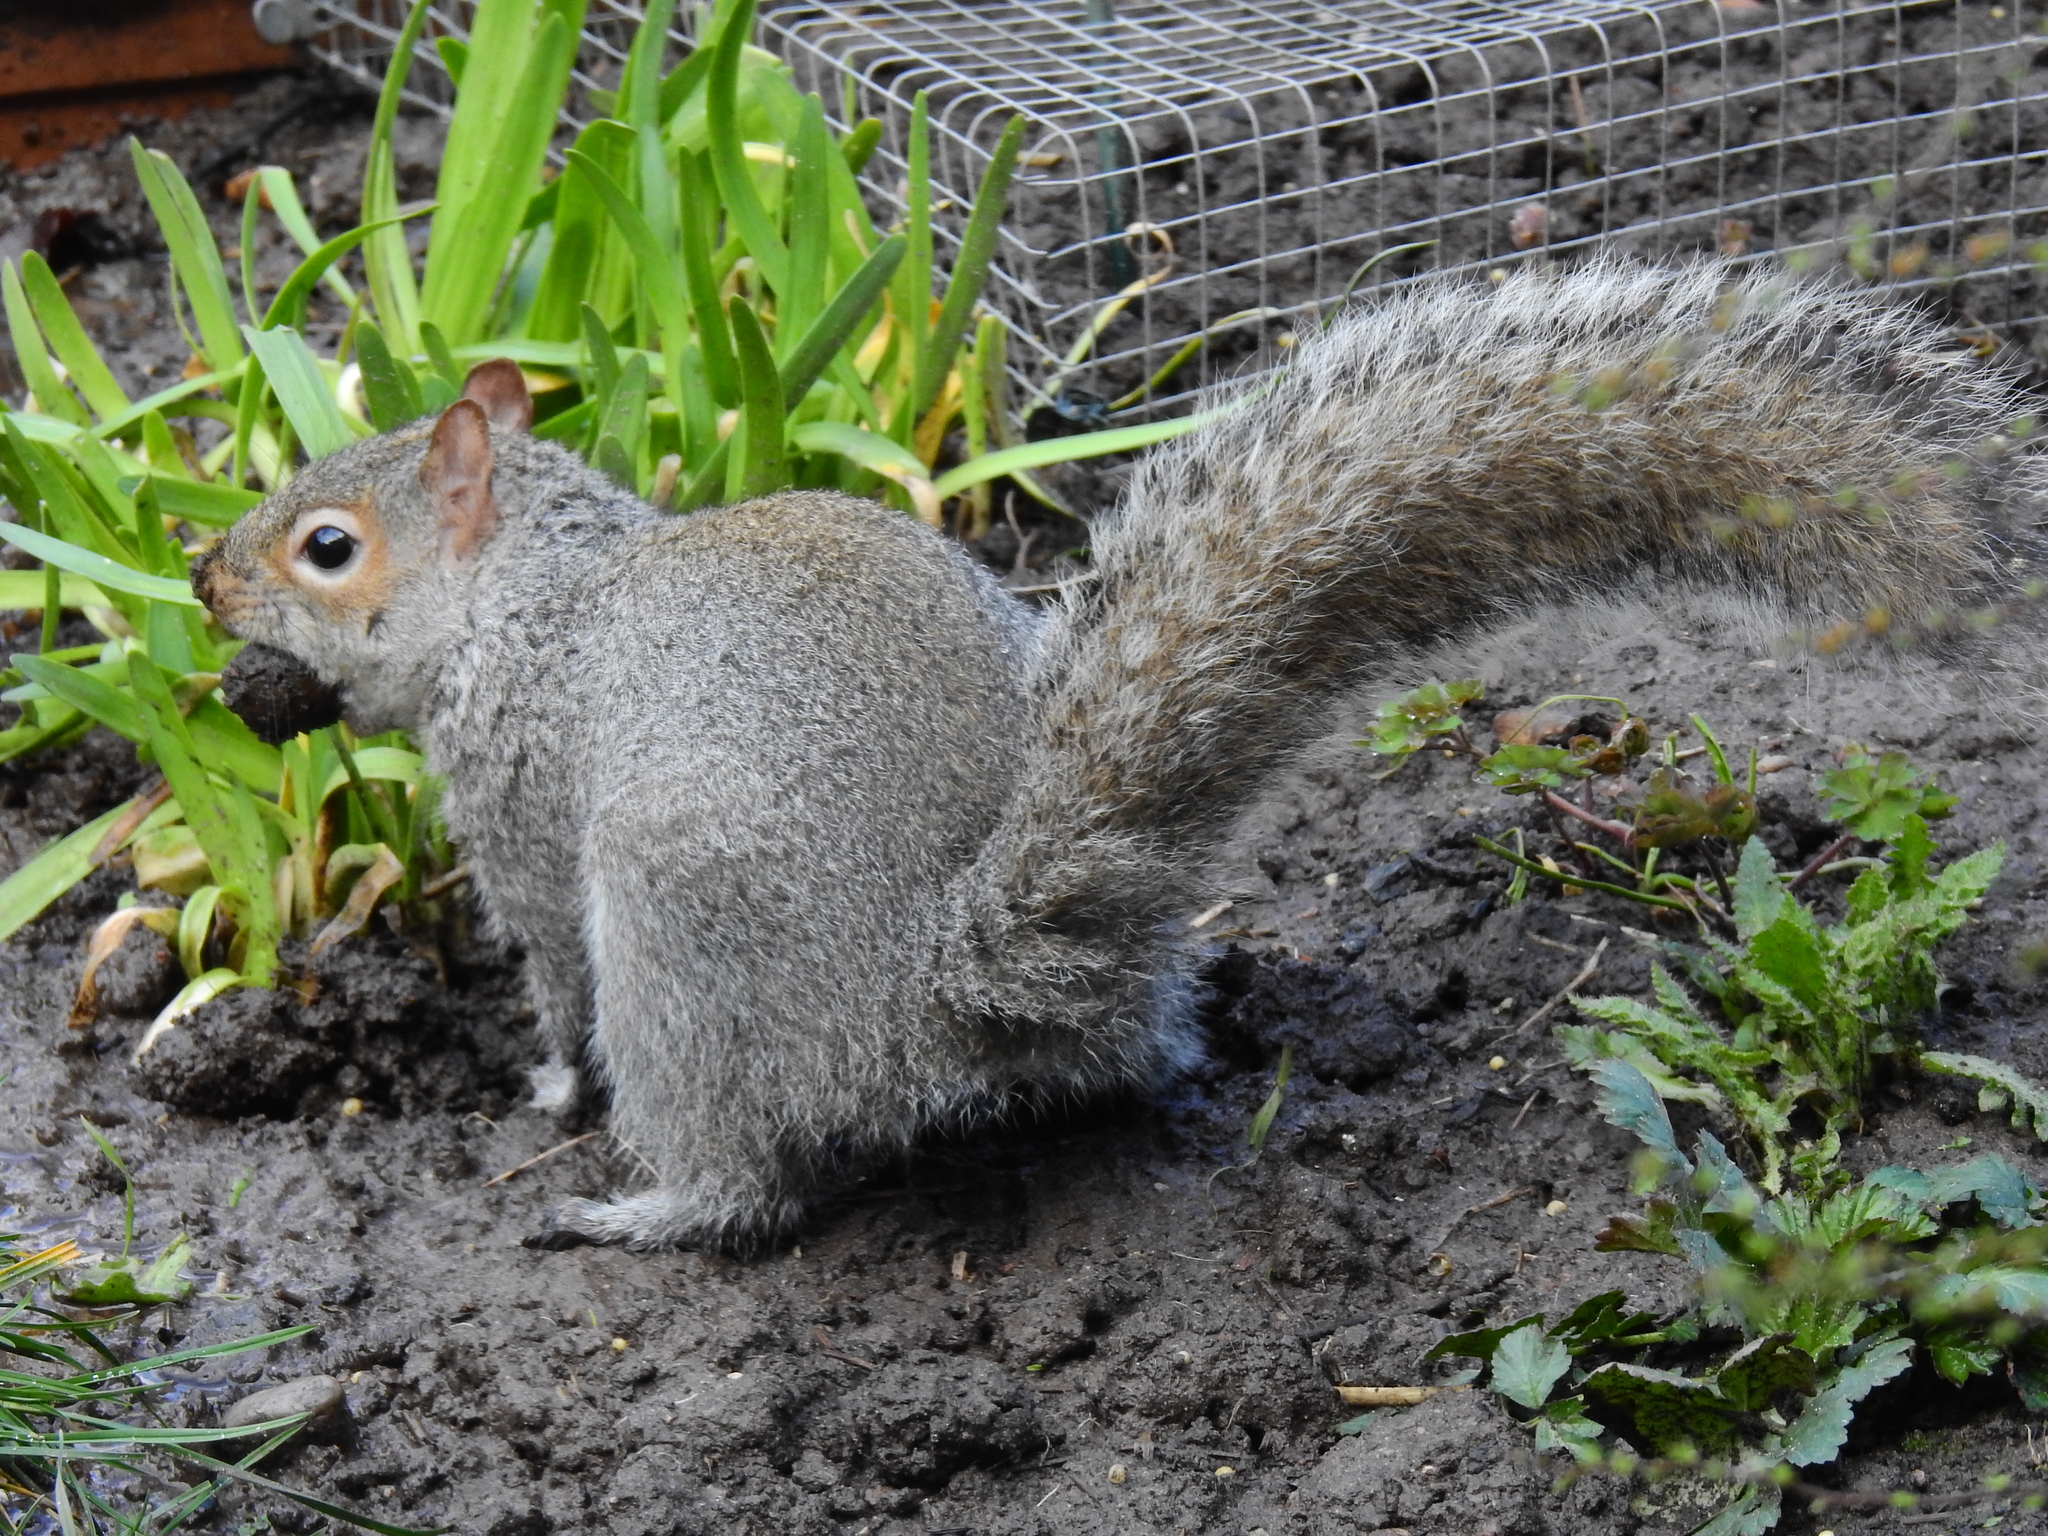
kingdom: Animalia
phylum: Chordata
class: Mammalia
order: Rodentia
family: Sciuridae
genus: Sciurus
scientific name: Sciurus carolinensis
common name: Eastern gray squirrel
